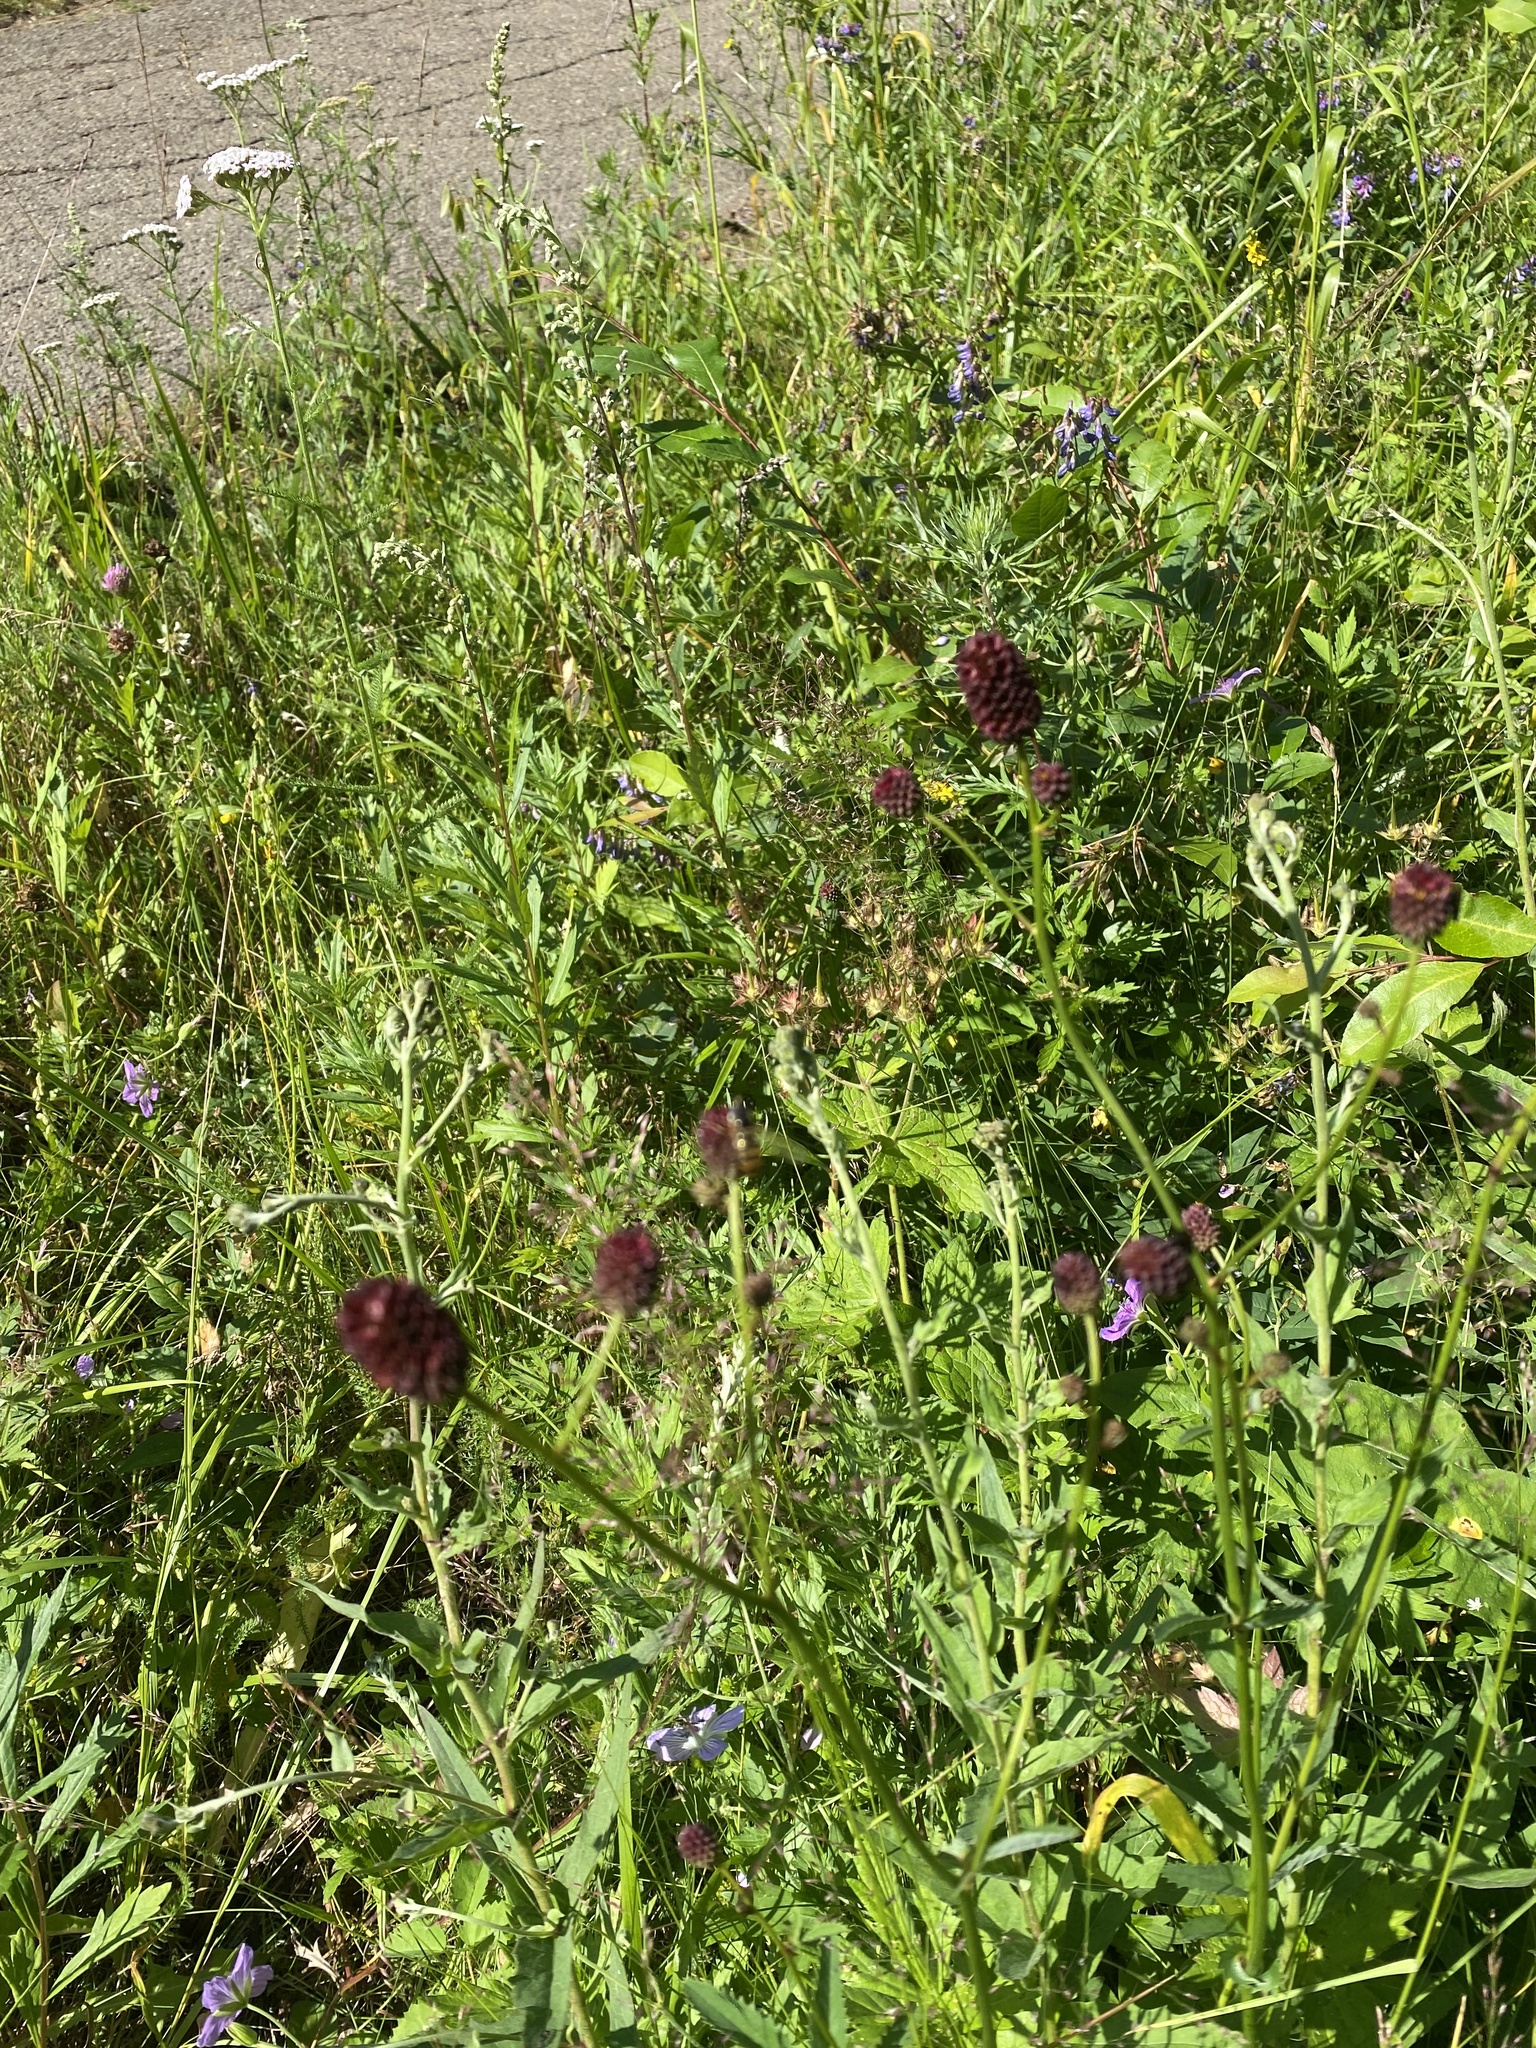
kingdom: Plantae
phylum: Tracheophyta
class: Magnoliopsida
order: Rosales
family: Rosaceae
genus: Sanguisorba
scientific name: Sanguisorba officinalis
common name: Great burnet
